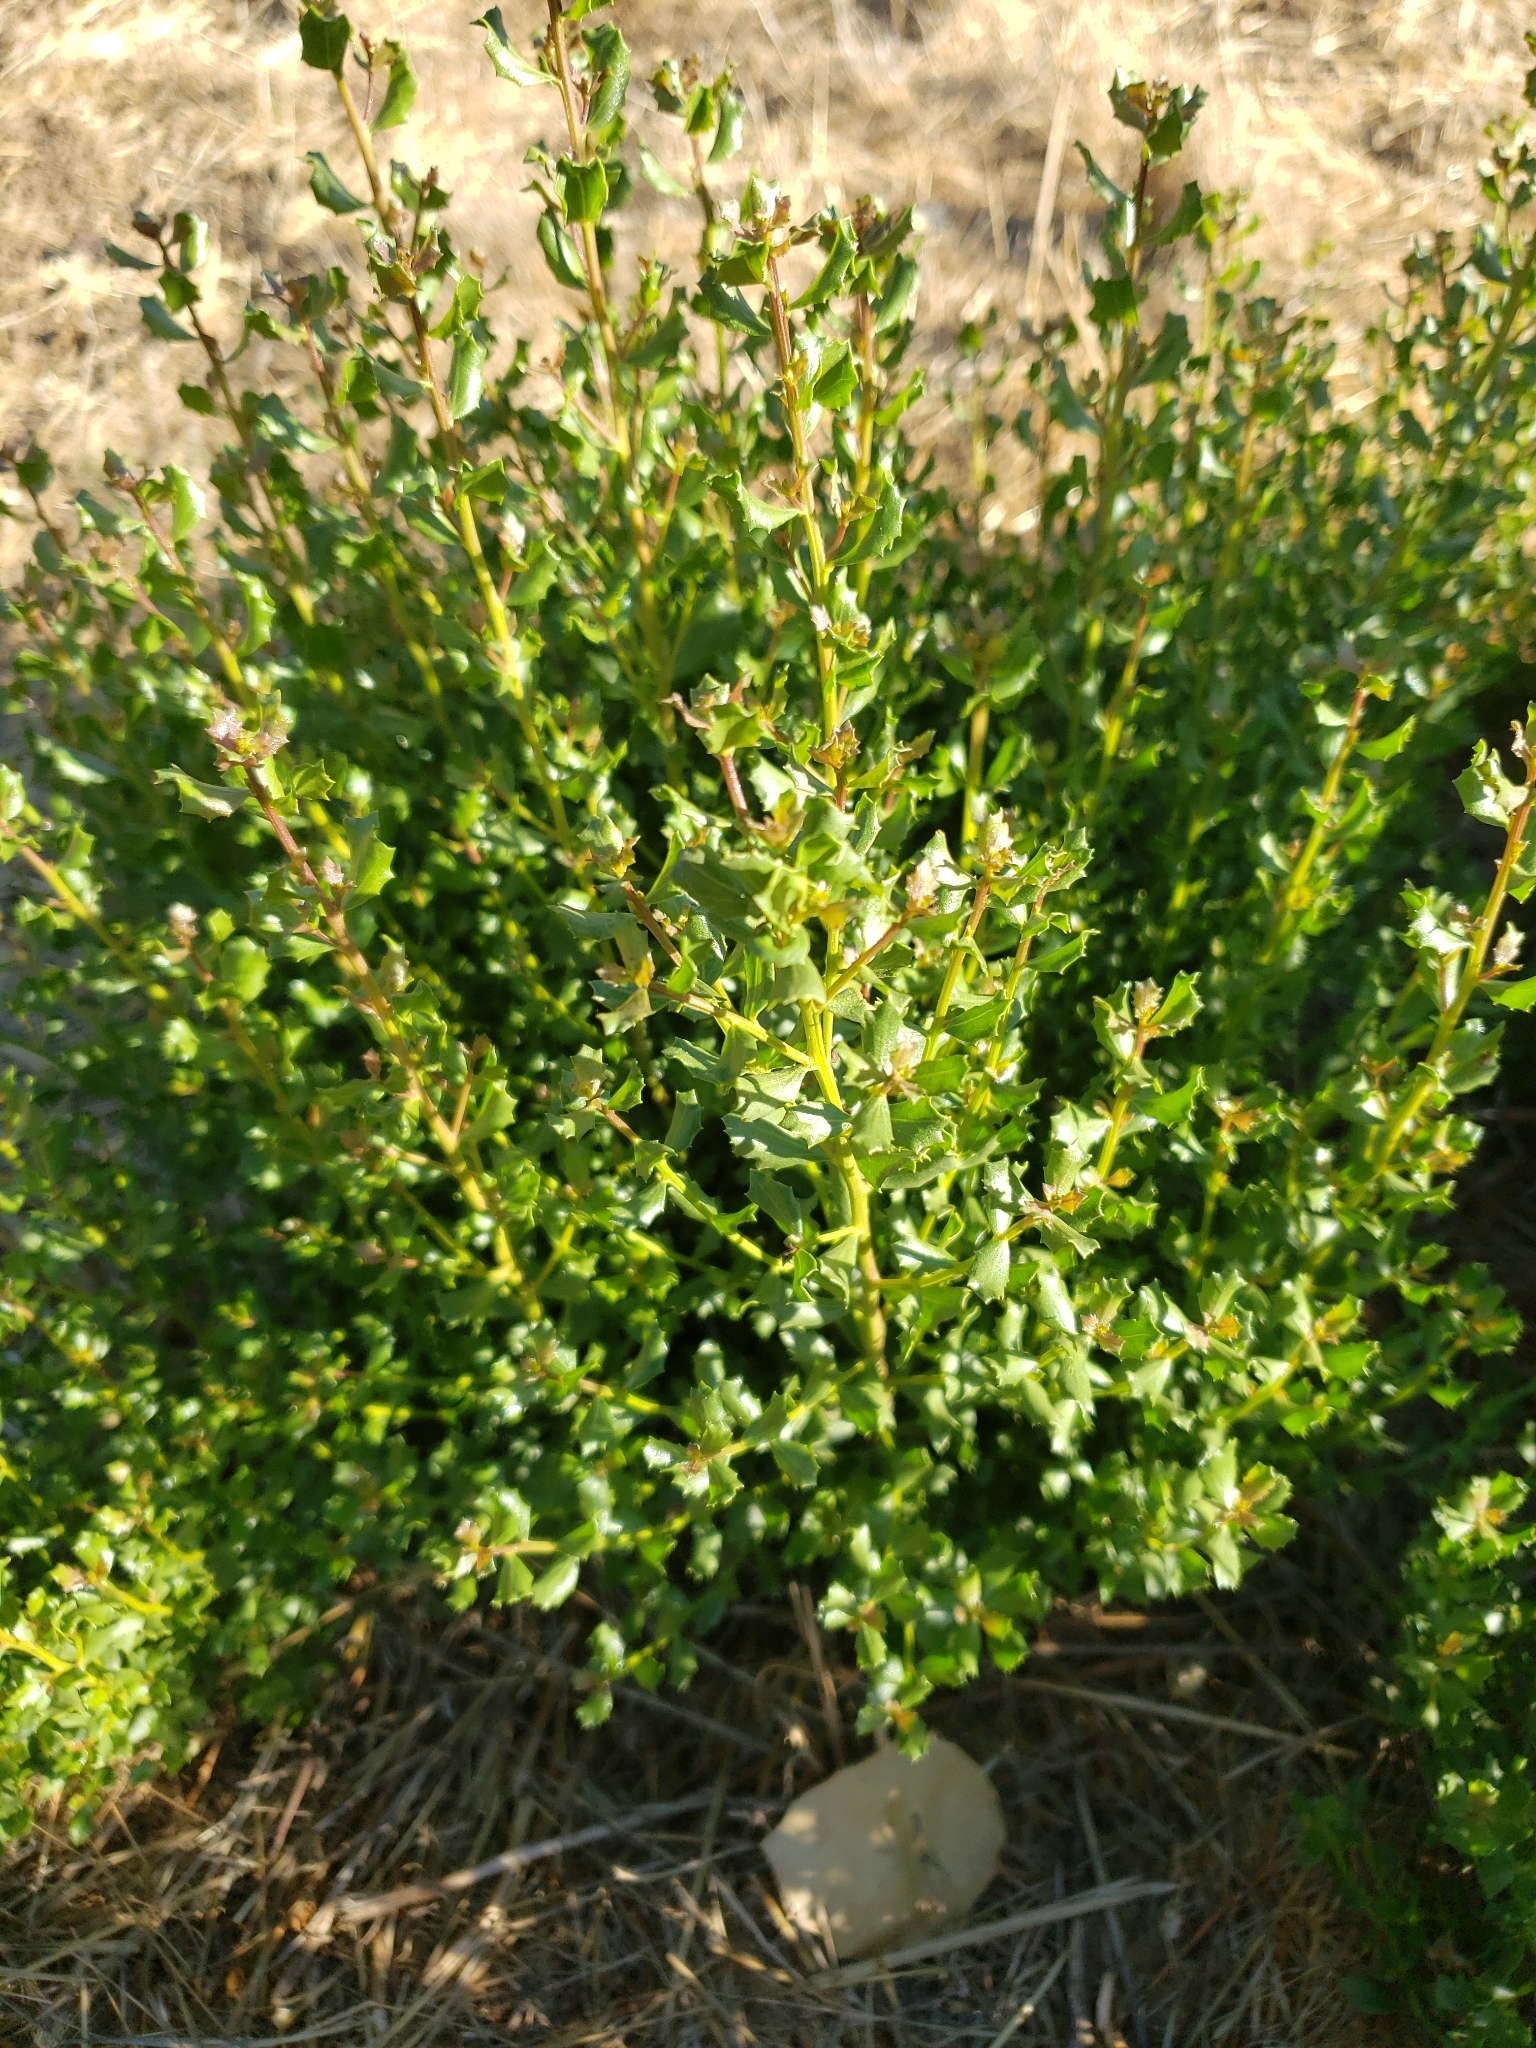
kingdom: Plantae
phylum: Tracheophyta
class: Magnoliopsida
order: Asterales
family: Asteraceae
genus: Baccharis
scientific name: Baccharis pilularis
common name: Coyotebrush
